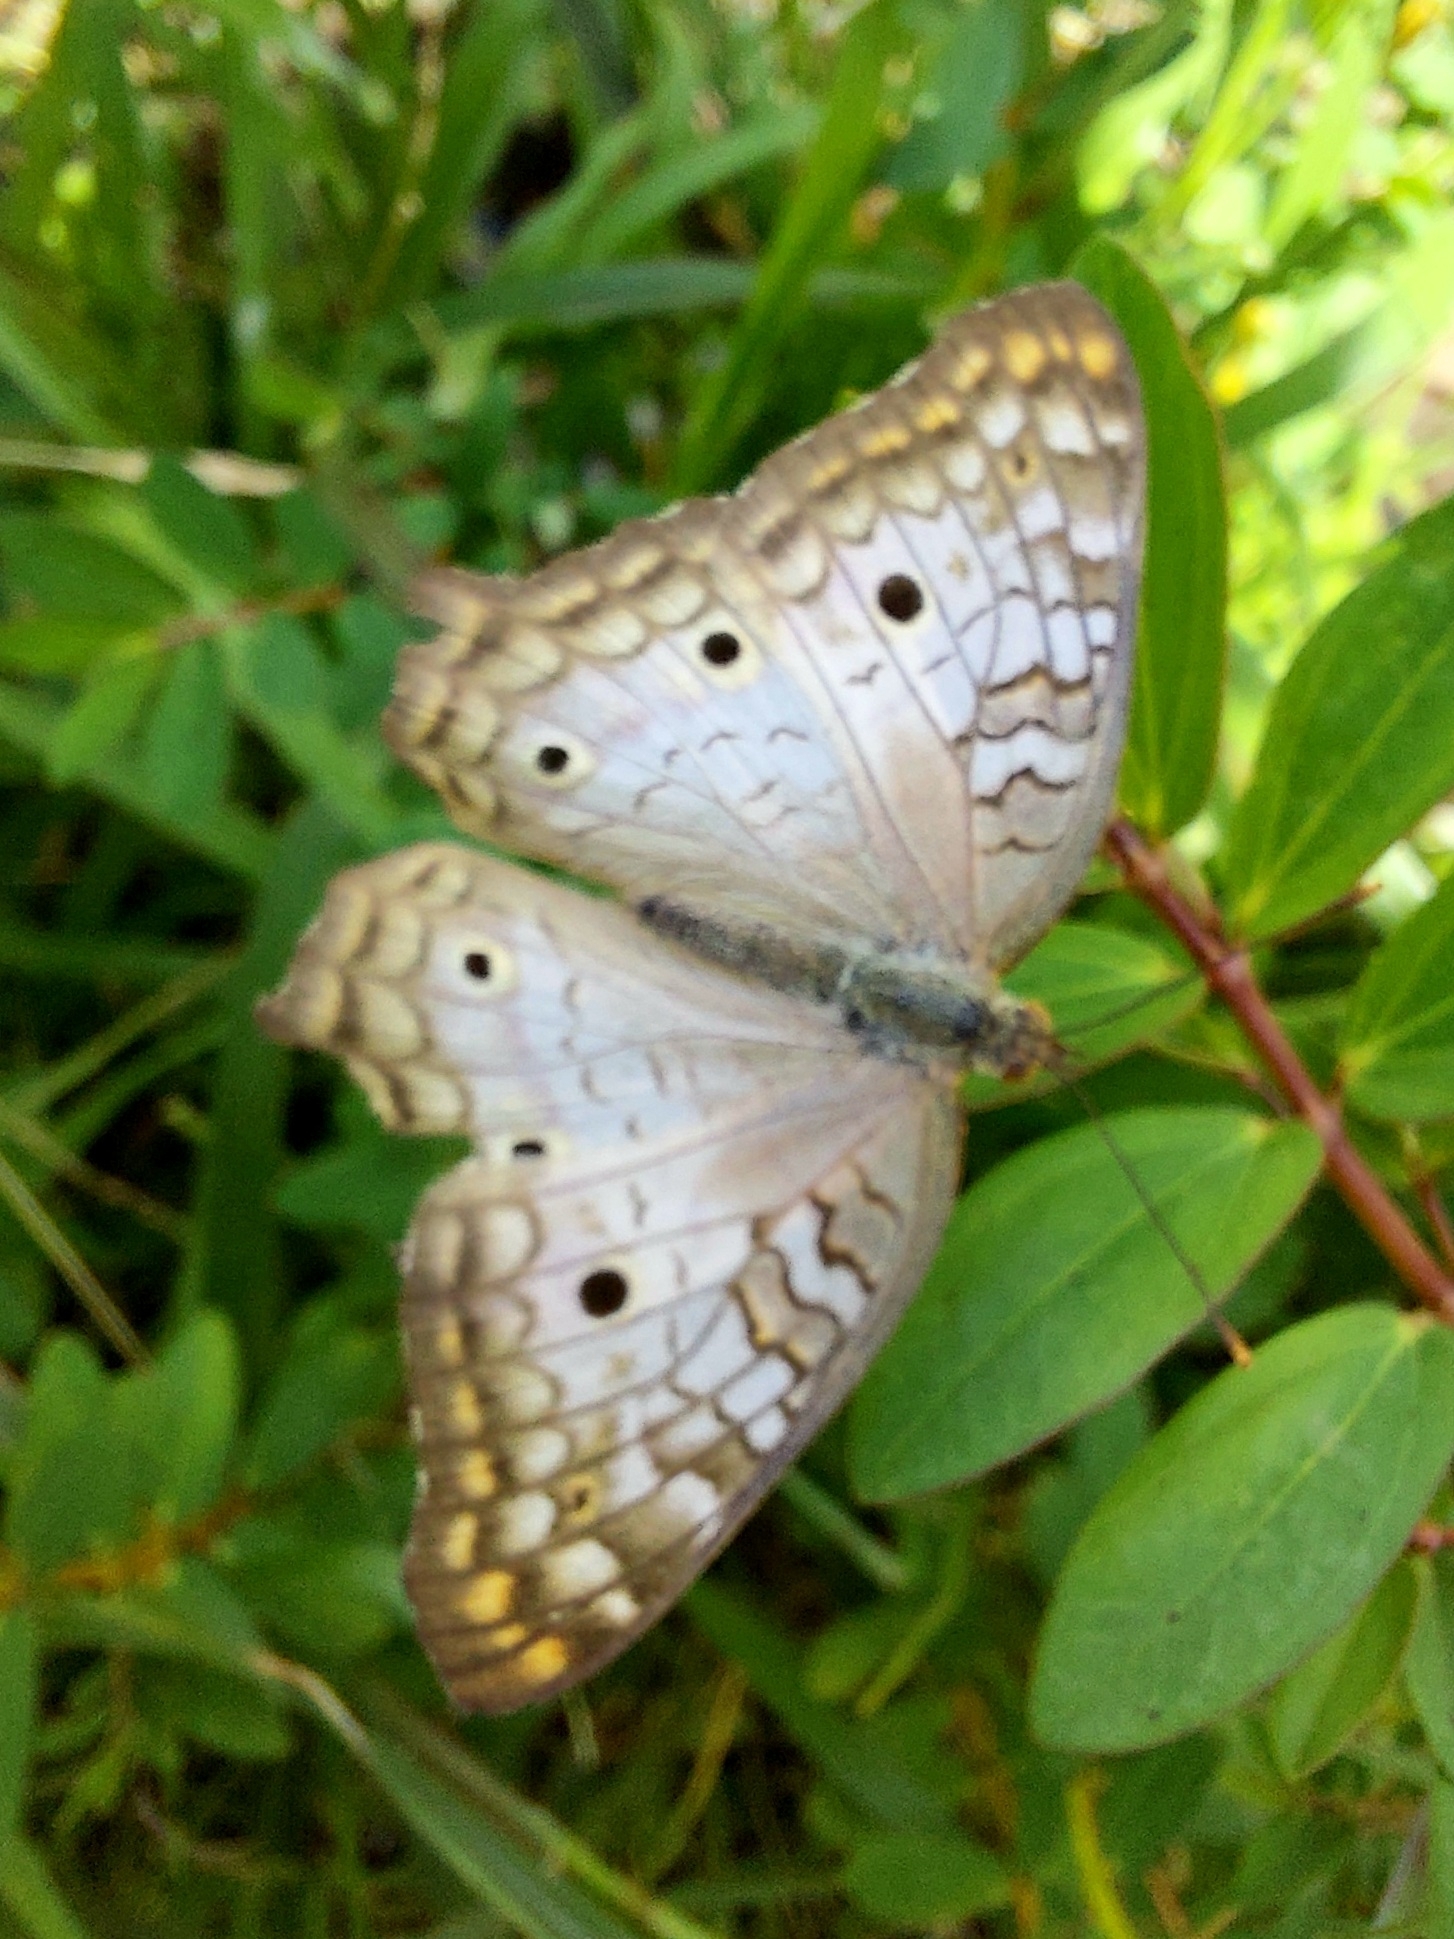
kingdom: Animalia
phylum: Arthropoda
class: Insecta
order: Lepidoptera
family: Nymphalidae
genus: Anartia
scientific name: Anartia jatrophae
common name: White peacock
